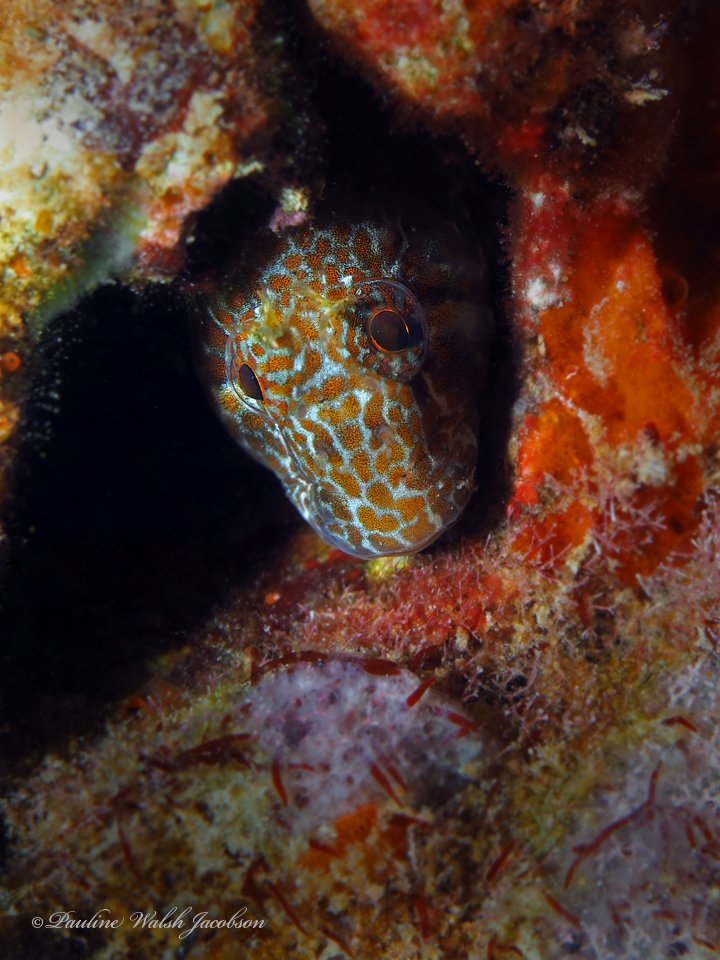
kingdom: Animalia
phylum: Chordata
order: Perciformes
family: Blenniidae
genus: Hypleurochilus
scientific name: Hypleurochilus pseudoaequipinnis
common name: Oyster blenny
